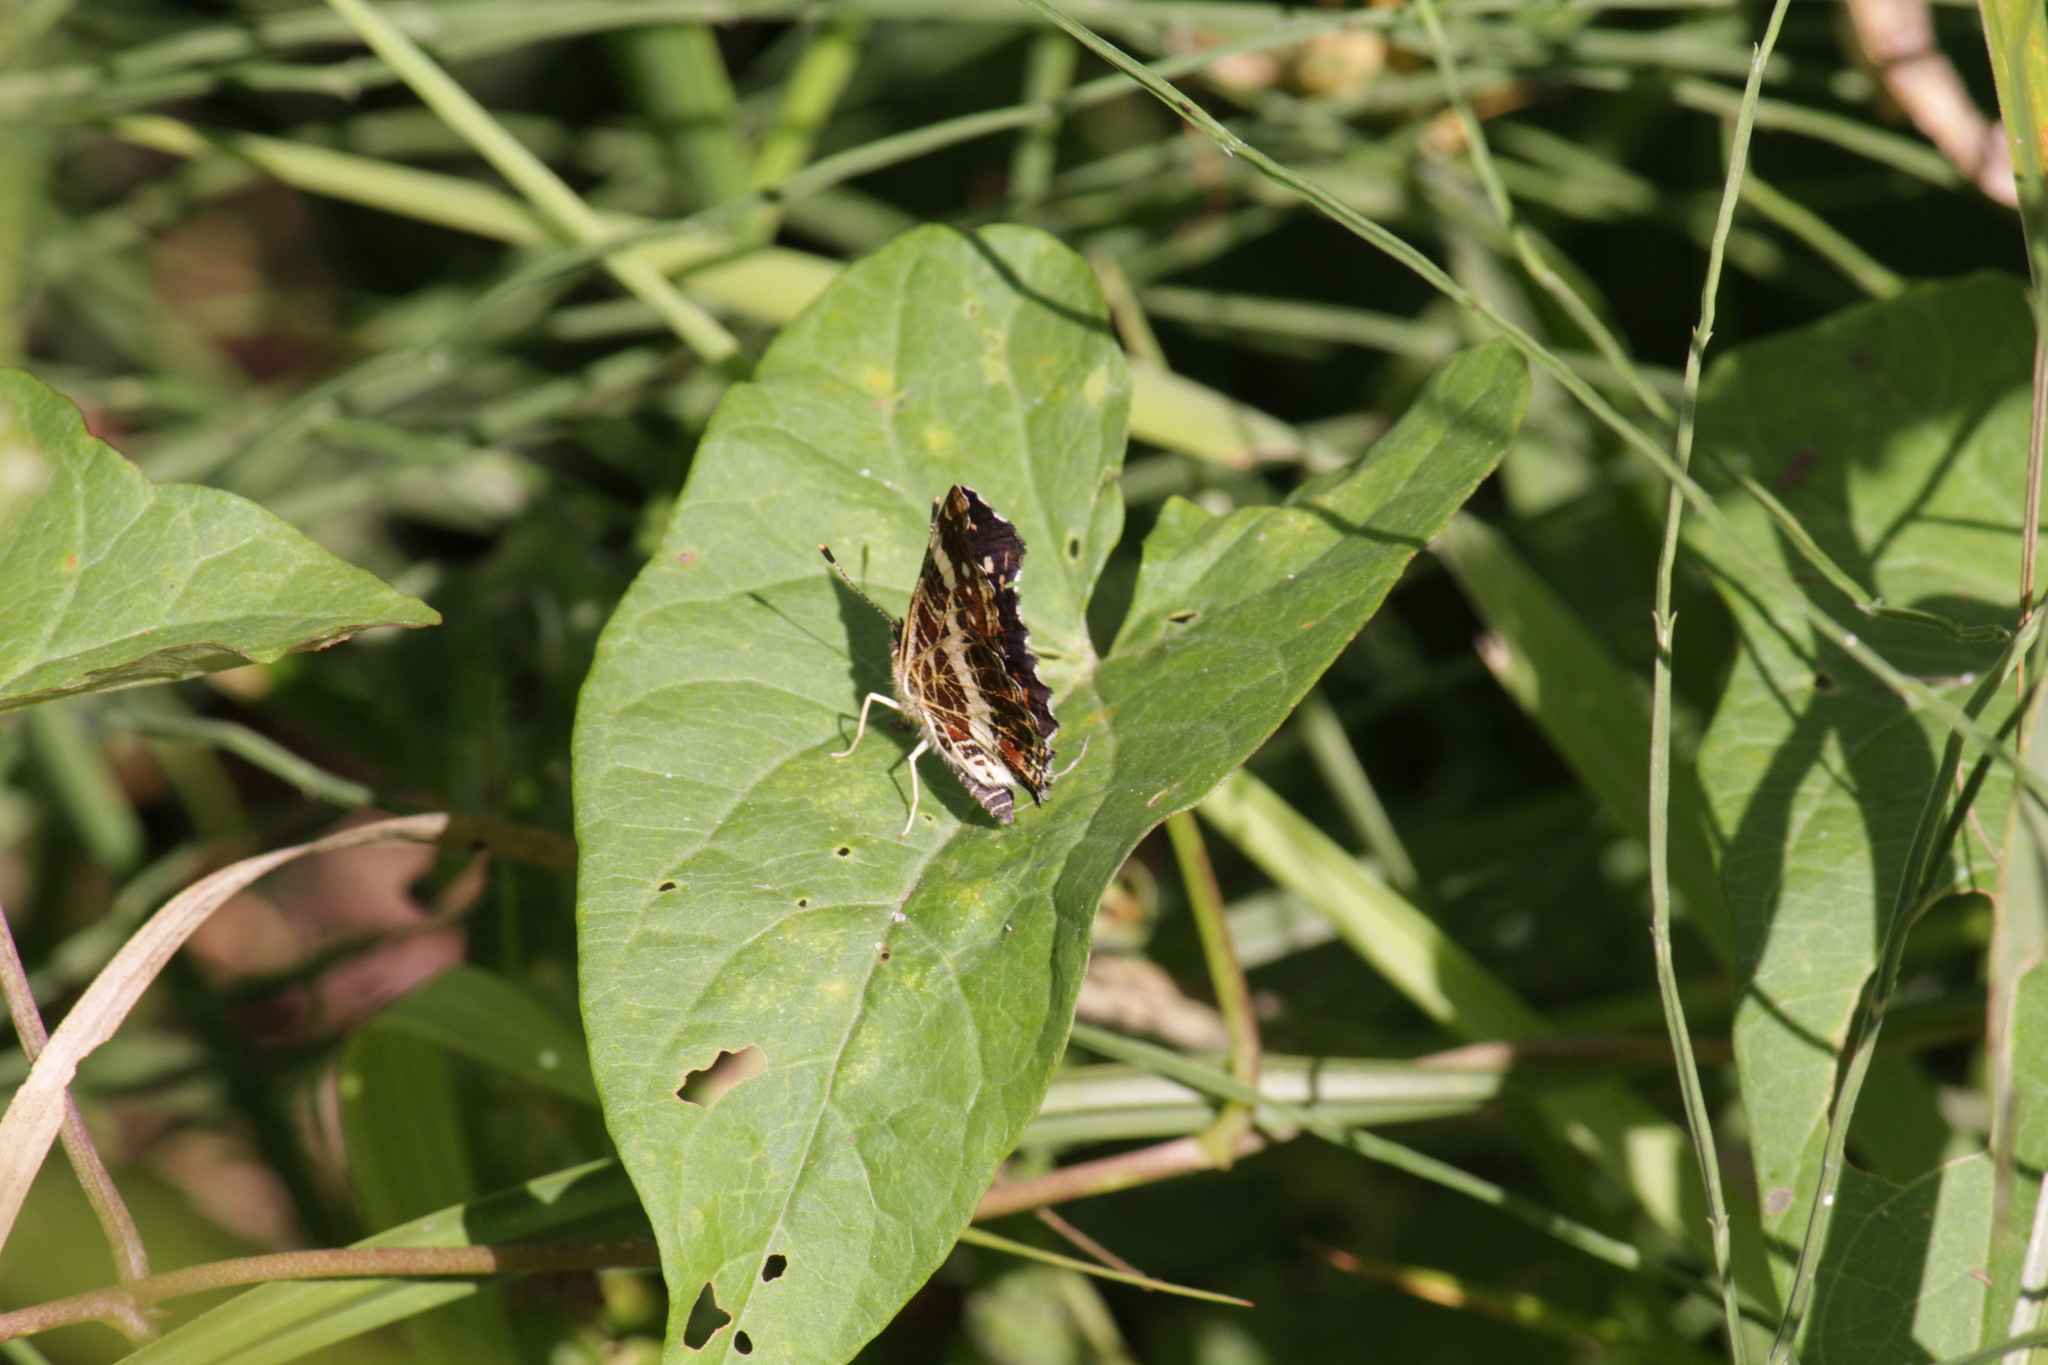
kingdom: Animalia
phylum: Arthropoda
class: Insecta
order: Lepidoptera
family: Nymphalidae
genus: Araschnia
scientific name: Araschnia levana
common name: Map butterfly
